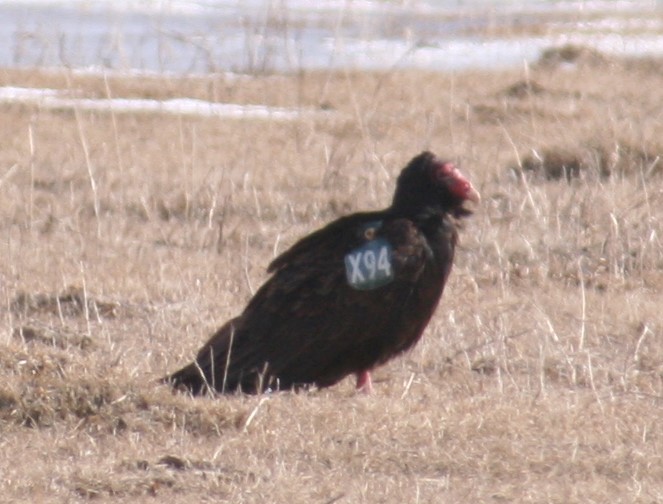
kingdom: Animalia
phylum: Chordata
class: Aves
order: Accipitriformes
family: Cathartidae
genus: Cathartes
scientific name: Cathartes aura
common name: Turkey vulture
